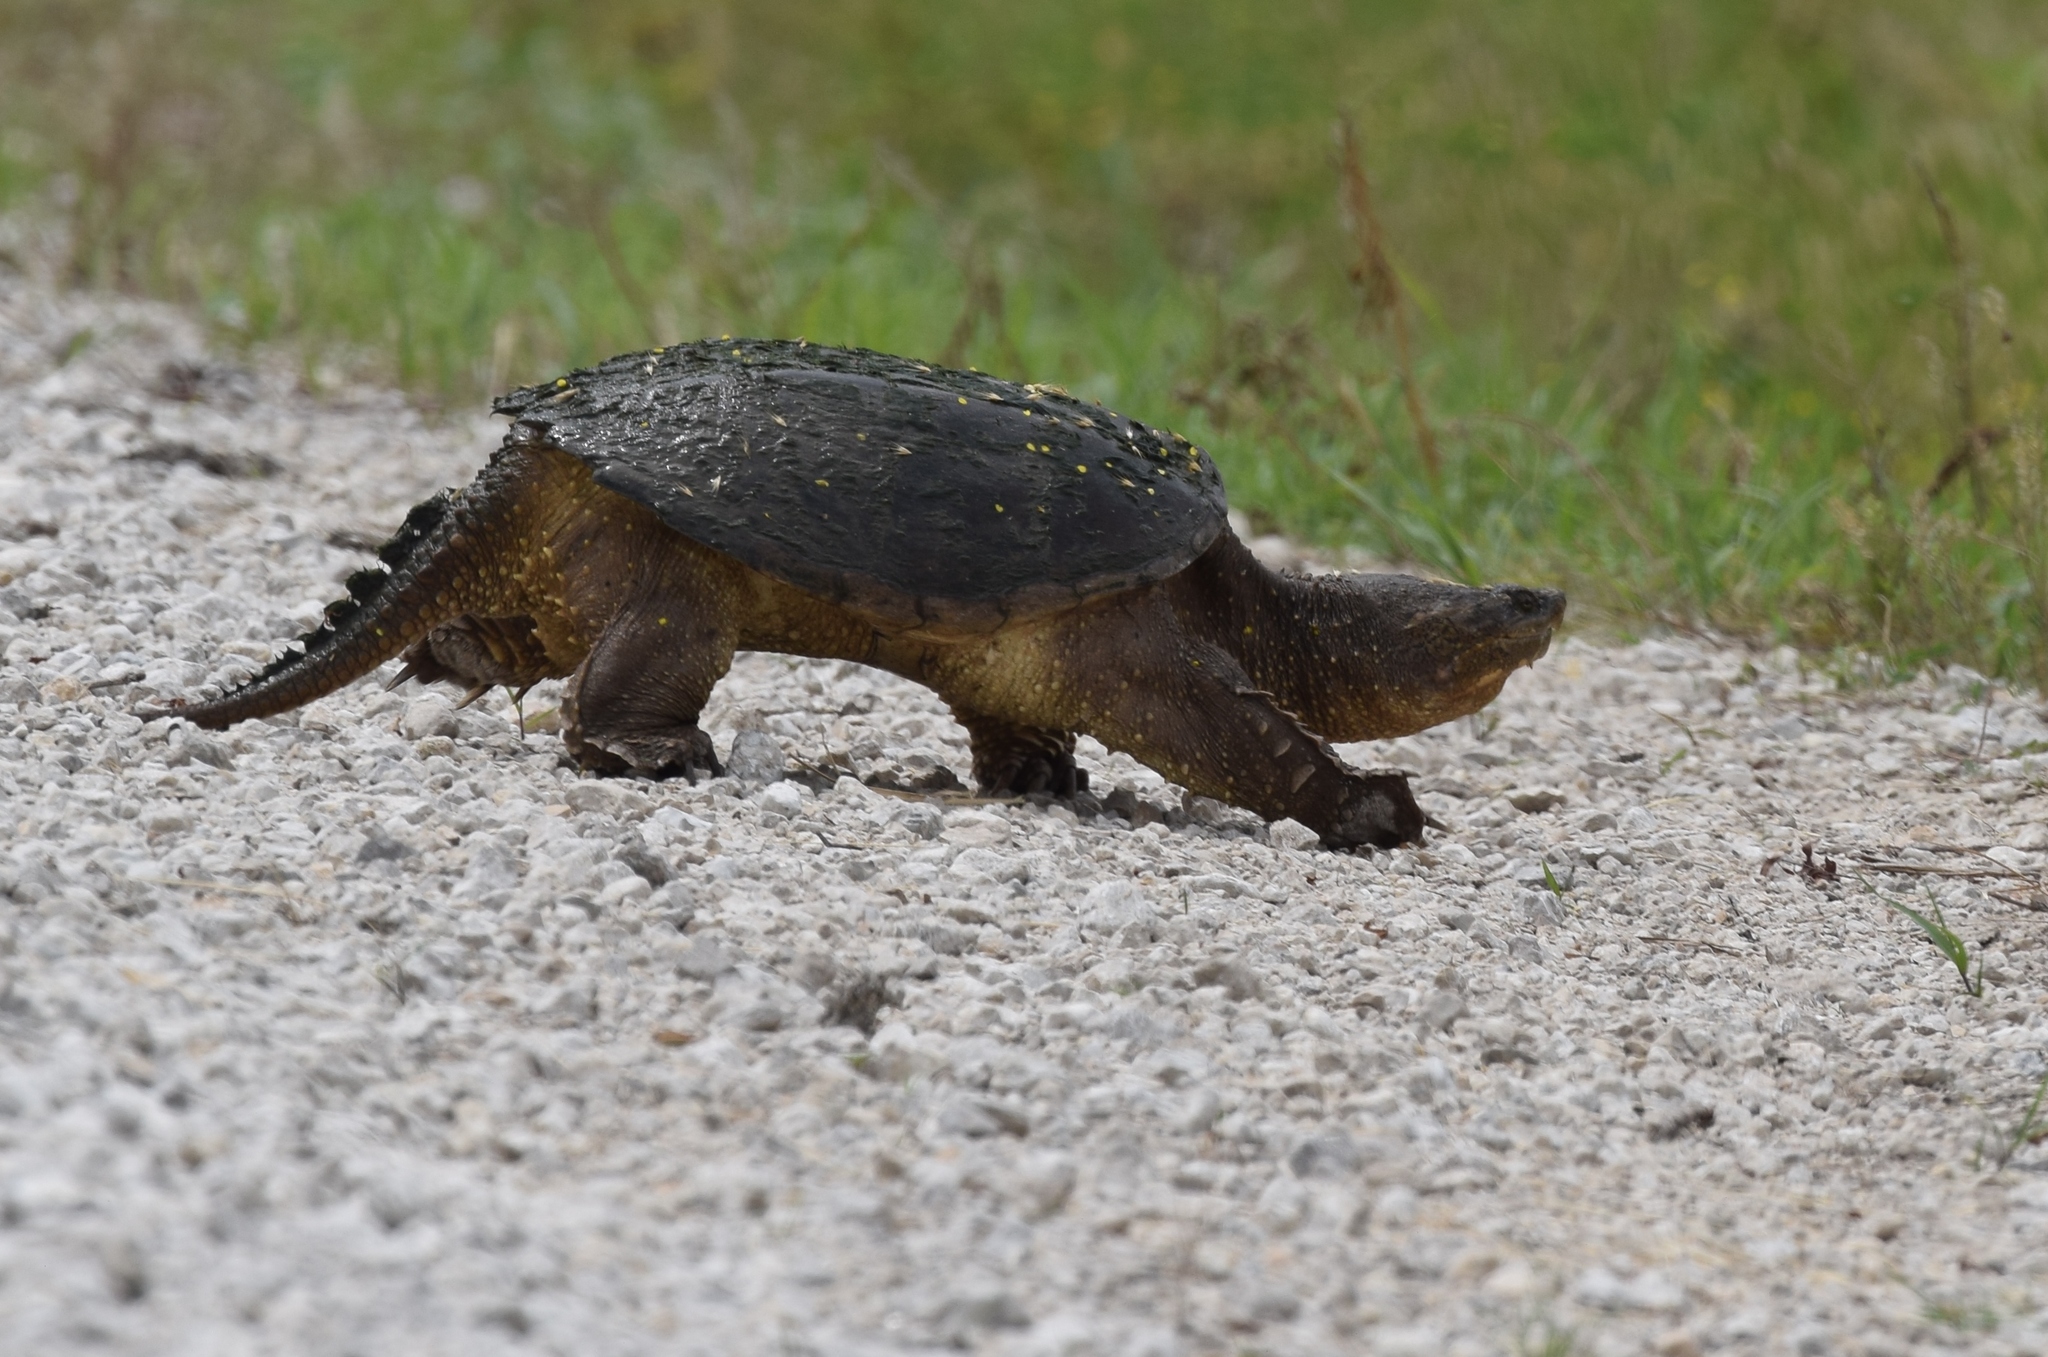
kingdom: Animalia
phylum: Chordata
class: Testudines
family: Chelydridae
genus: Chelydra
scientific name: Chelydra serpentina
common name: Common snapping turtle
